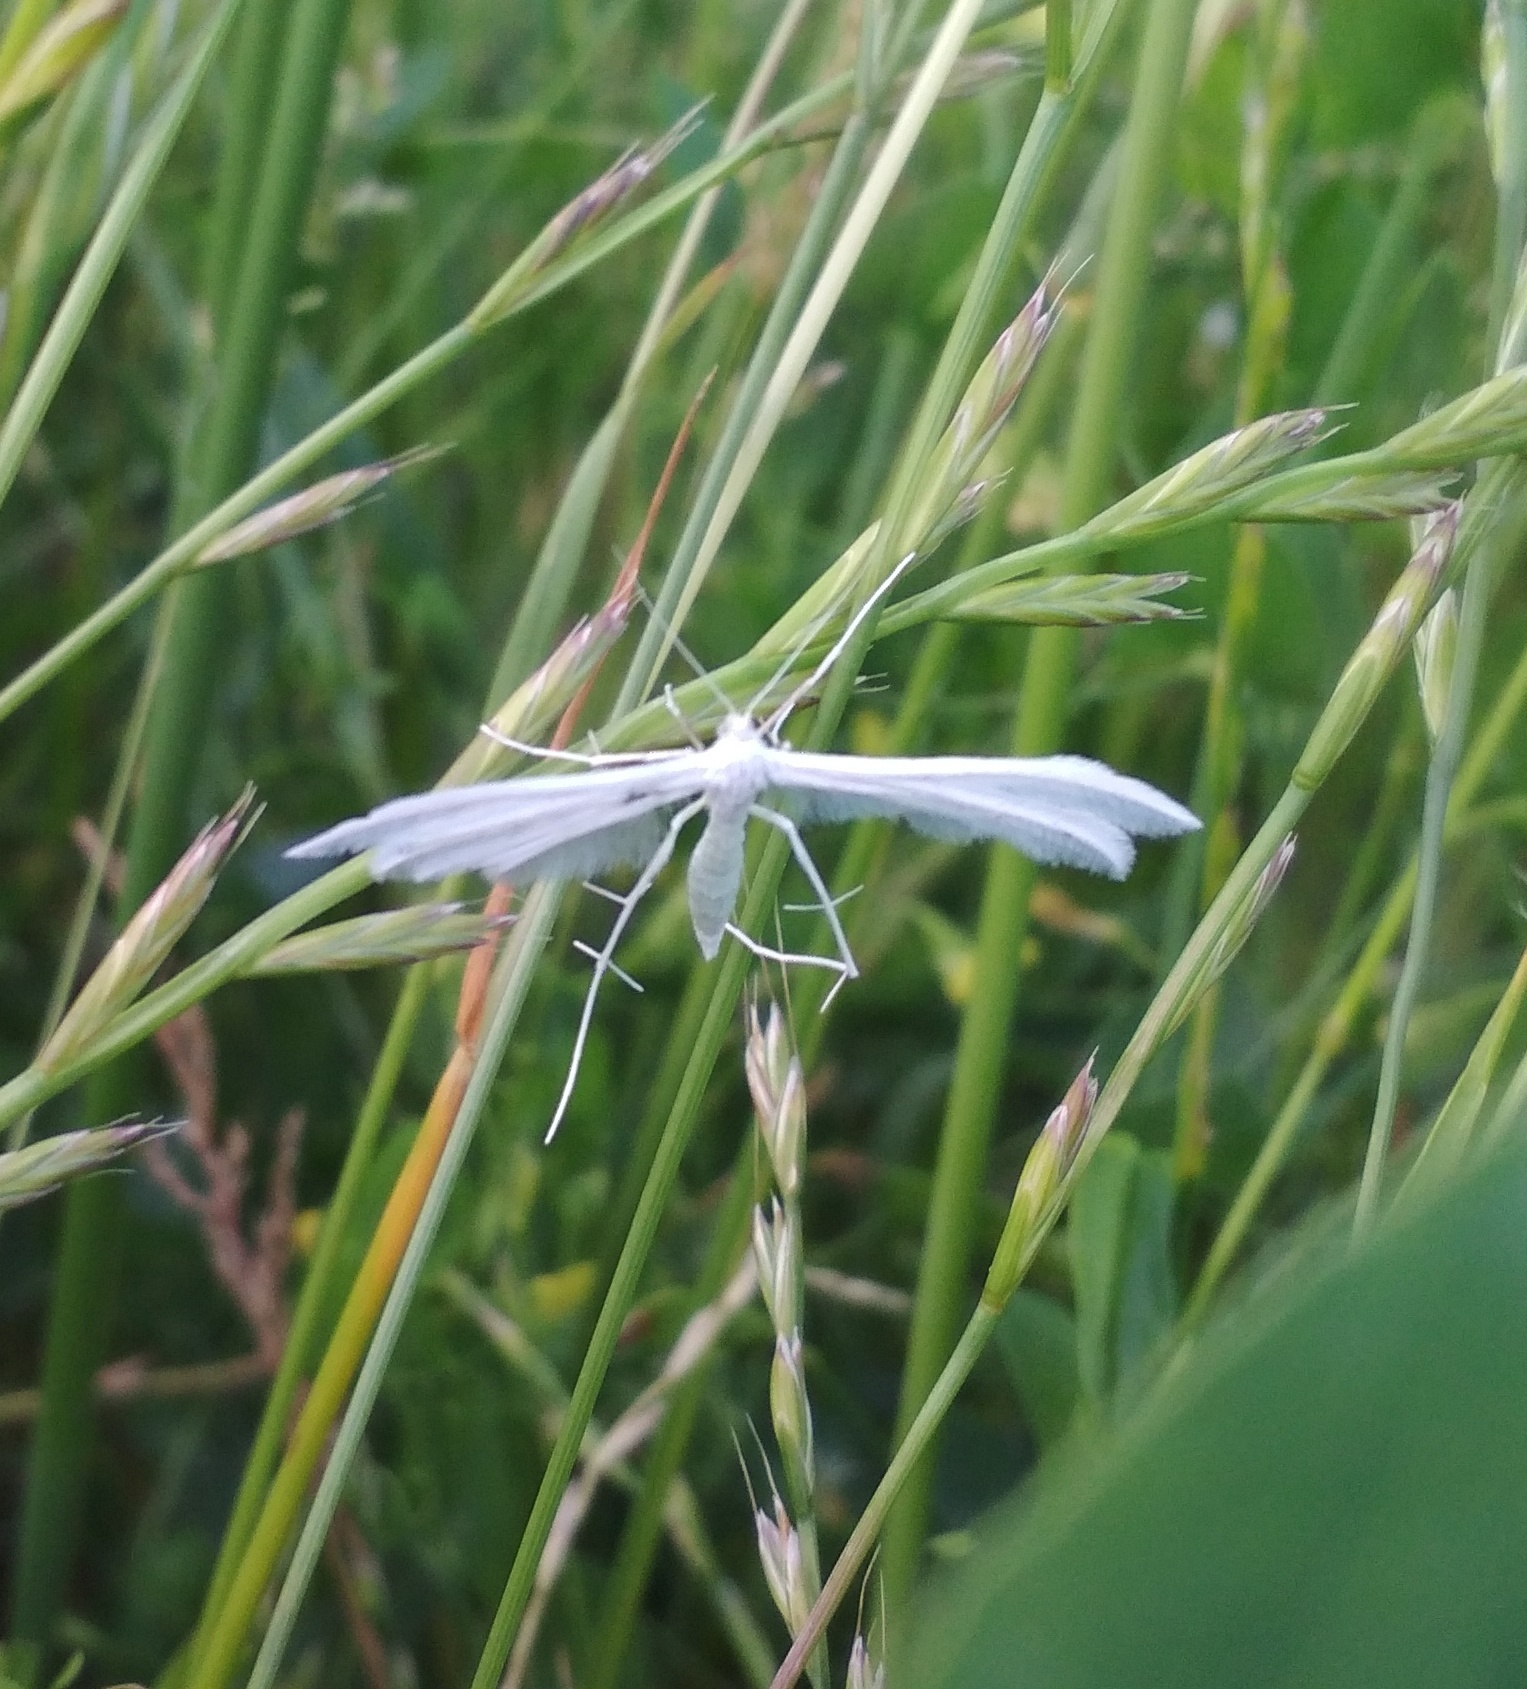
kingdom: Animalia
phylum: Arthropoda
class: Insecta
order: Lepidoptera
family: Pterophoridae
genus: Pterophorus
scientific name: Pterophorus pentadactyla
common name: White plume moth
